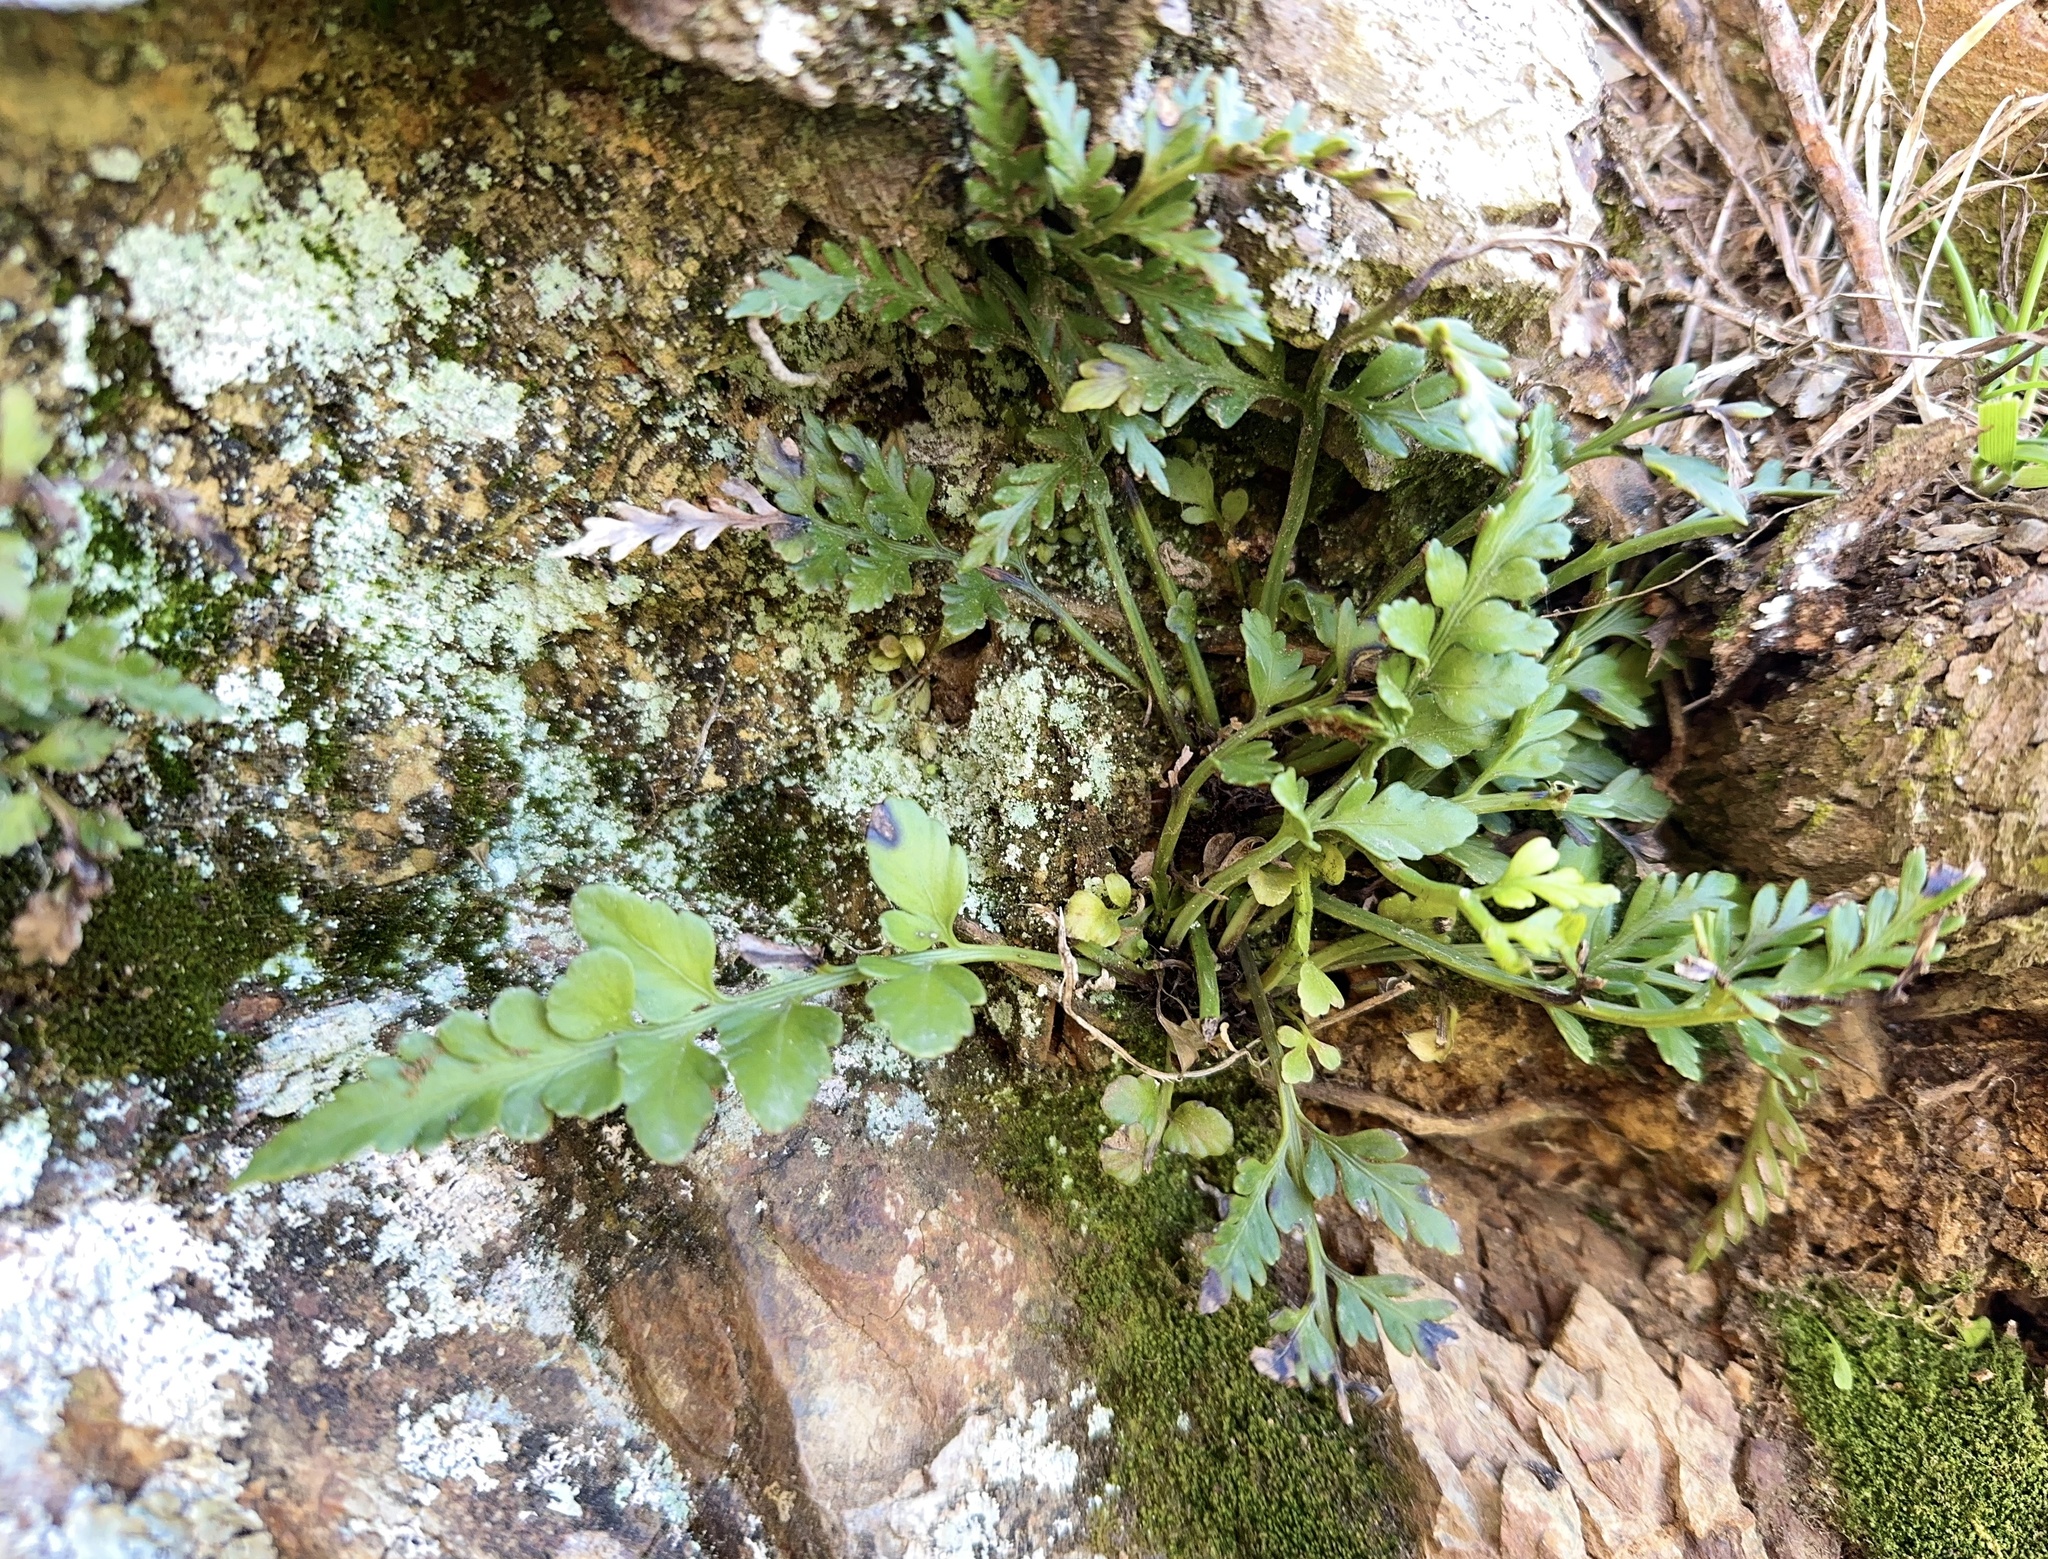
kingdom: Plantae
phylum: Tracheophyta
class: Polypodiopsida
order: Polypodiales
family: Aspleniaceae
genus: Asplenium
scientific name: Asplenium appendiculatum
